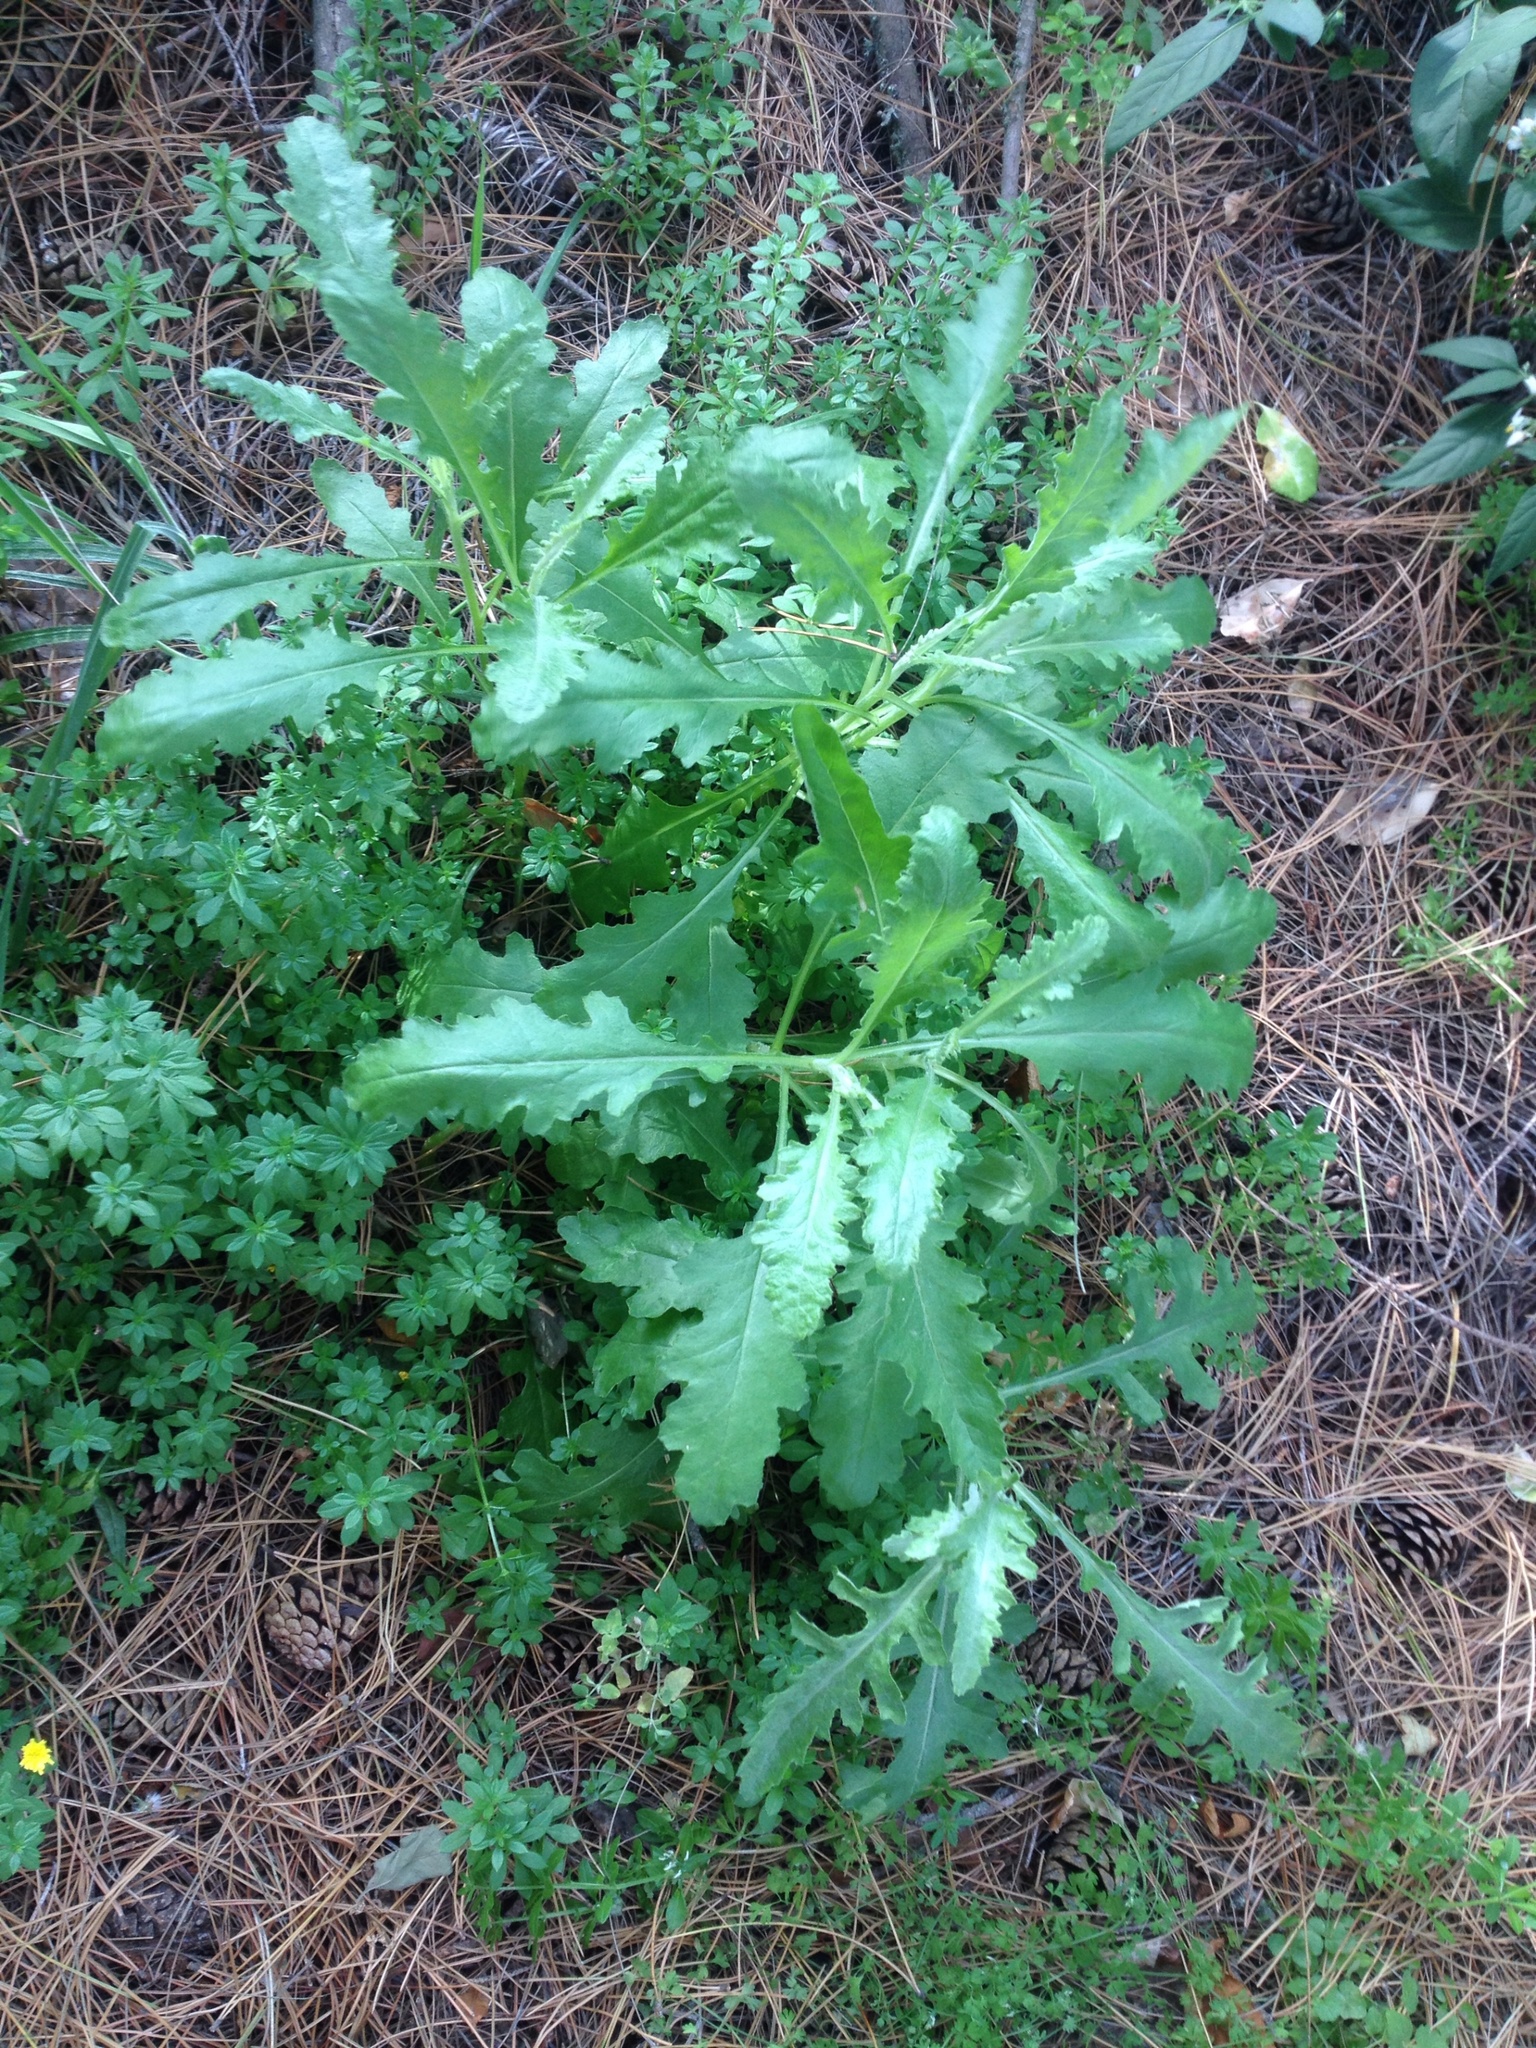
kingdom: Plantae
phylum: Tracheophyta
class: Magnoliopsida
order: Asterales
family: Asteraceae
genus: Senecio
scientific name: Senecio glomeratus
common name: Cutleaf burnweed
